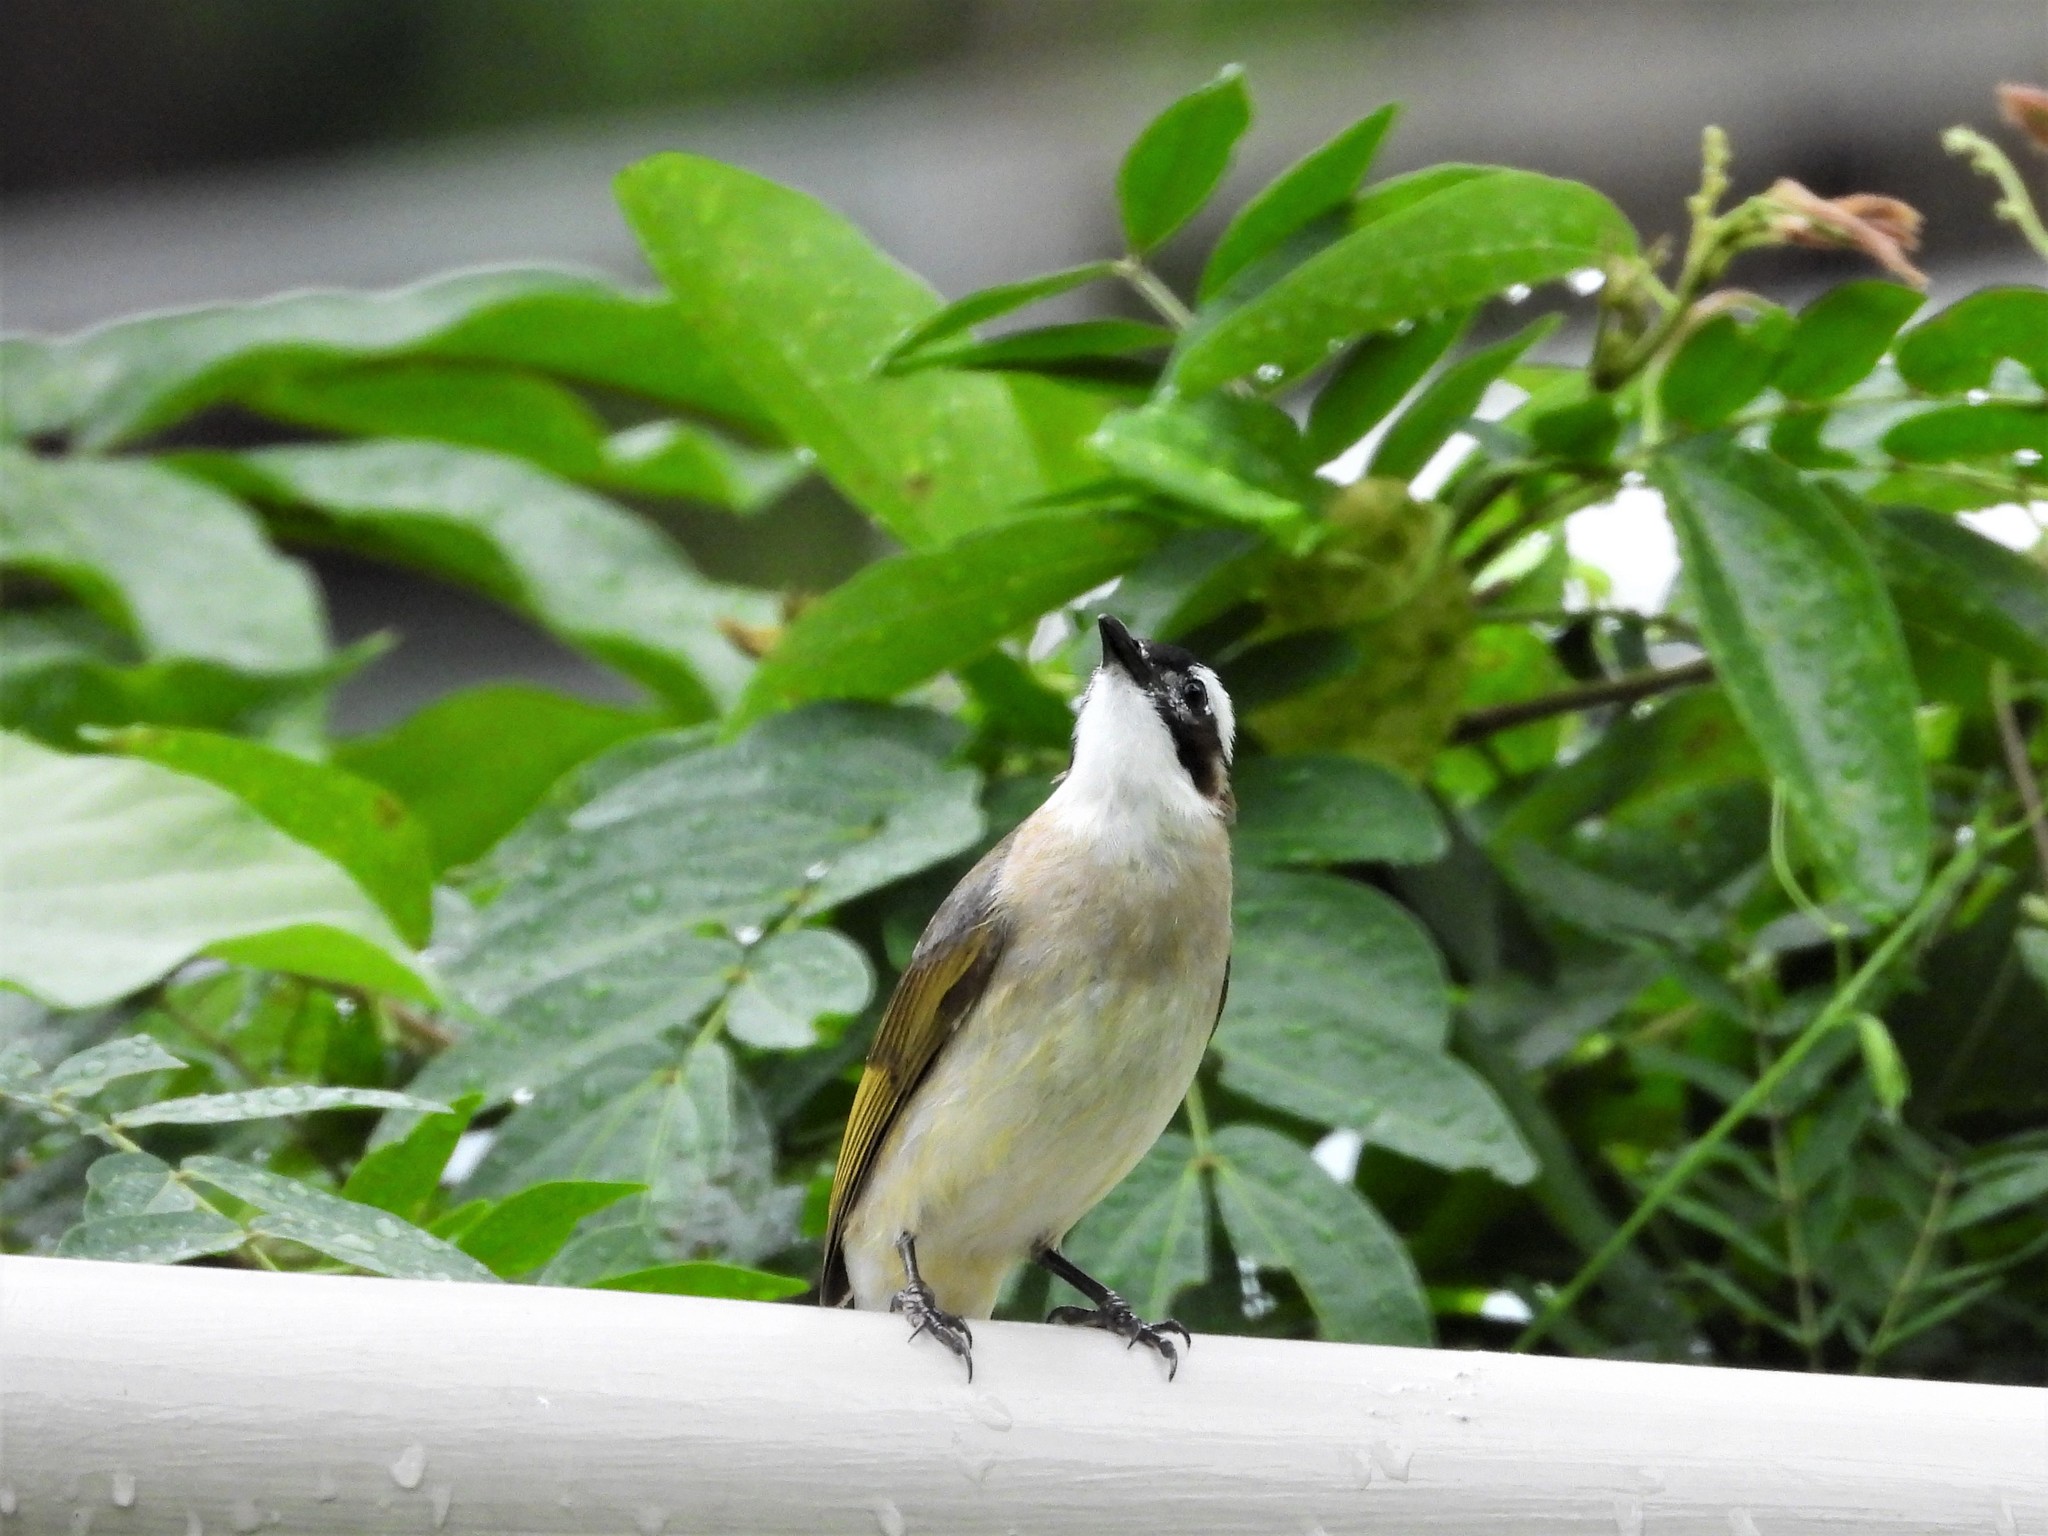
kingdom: Animalia
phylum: Chordata
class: Aves
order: Passeriformes
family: Pycnonotidae
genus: Pycnonotus
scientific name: Pycnonotus sinensis
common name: Light-vented bulbul
